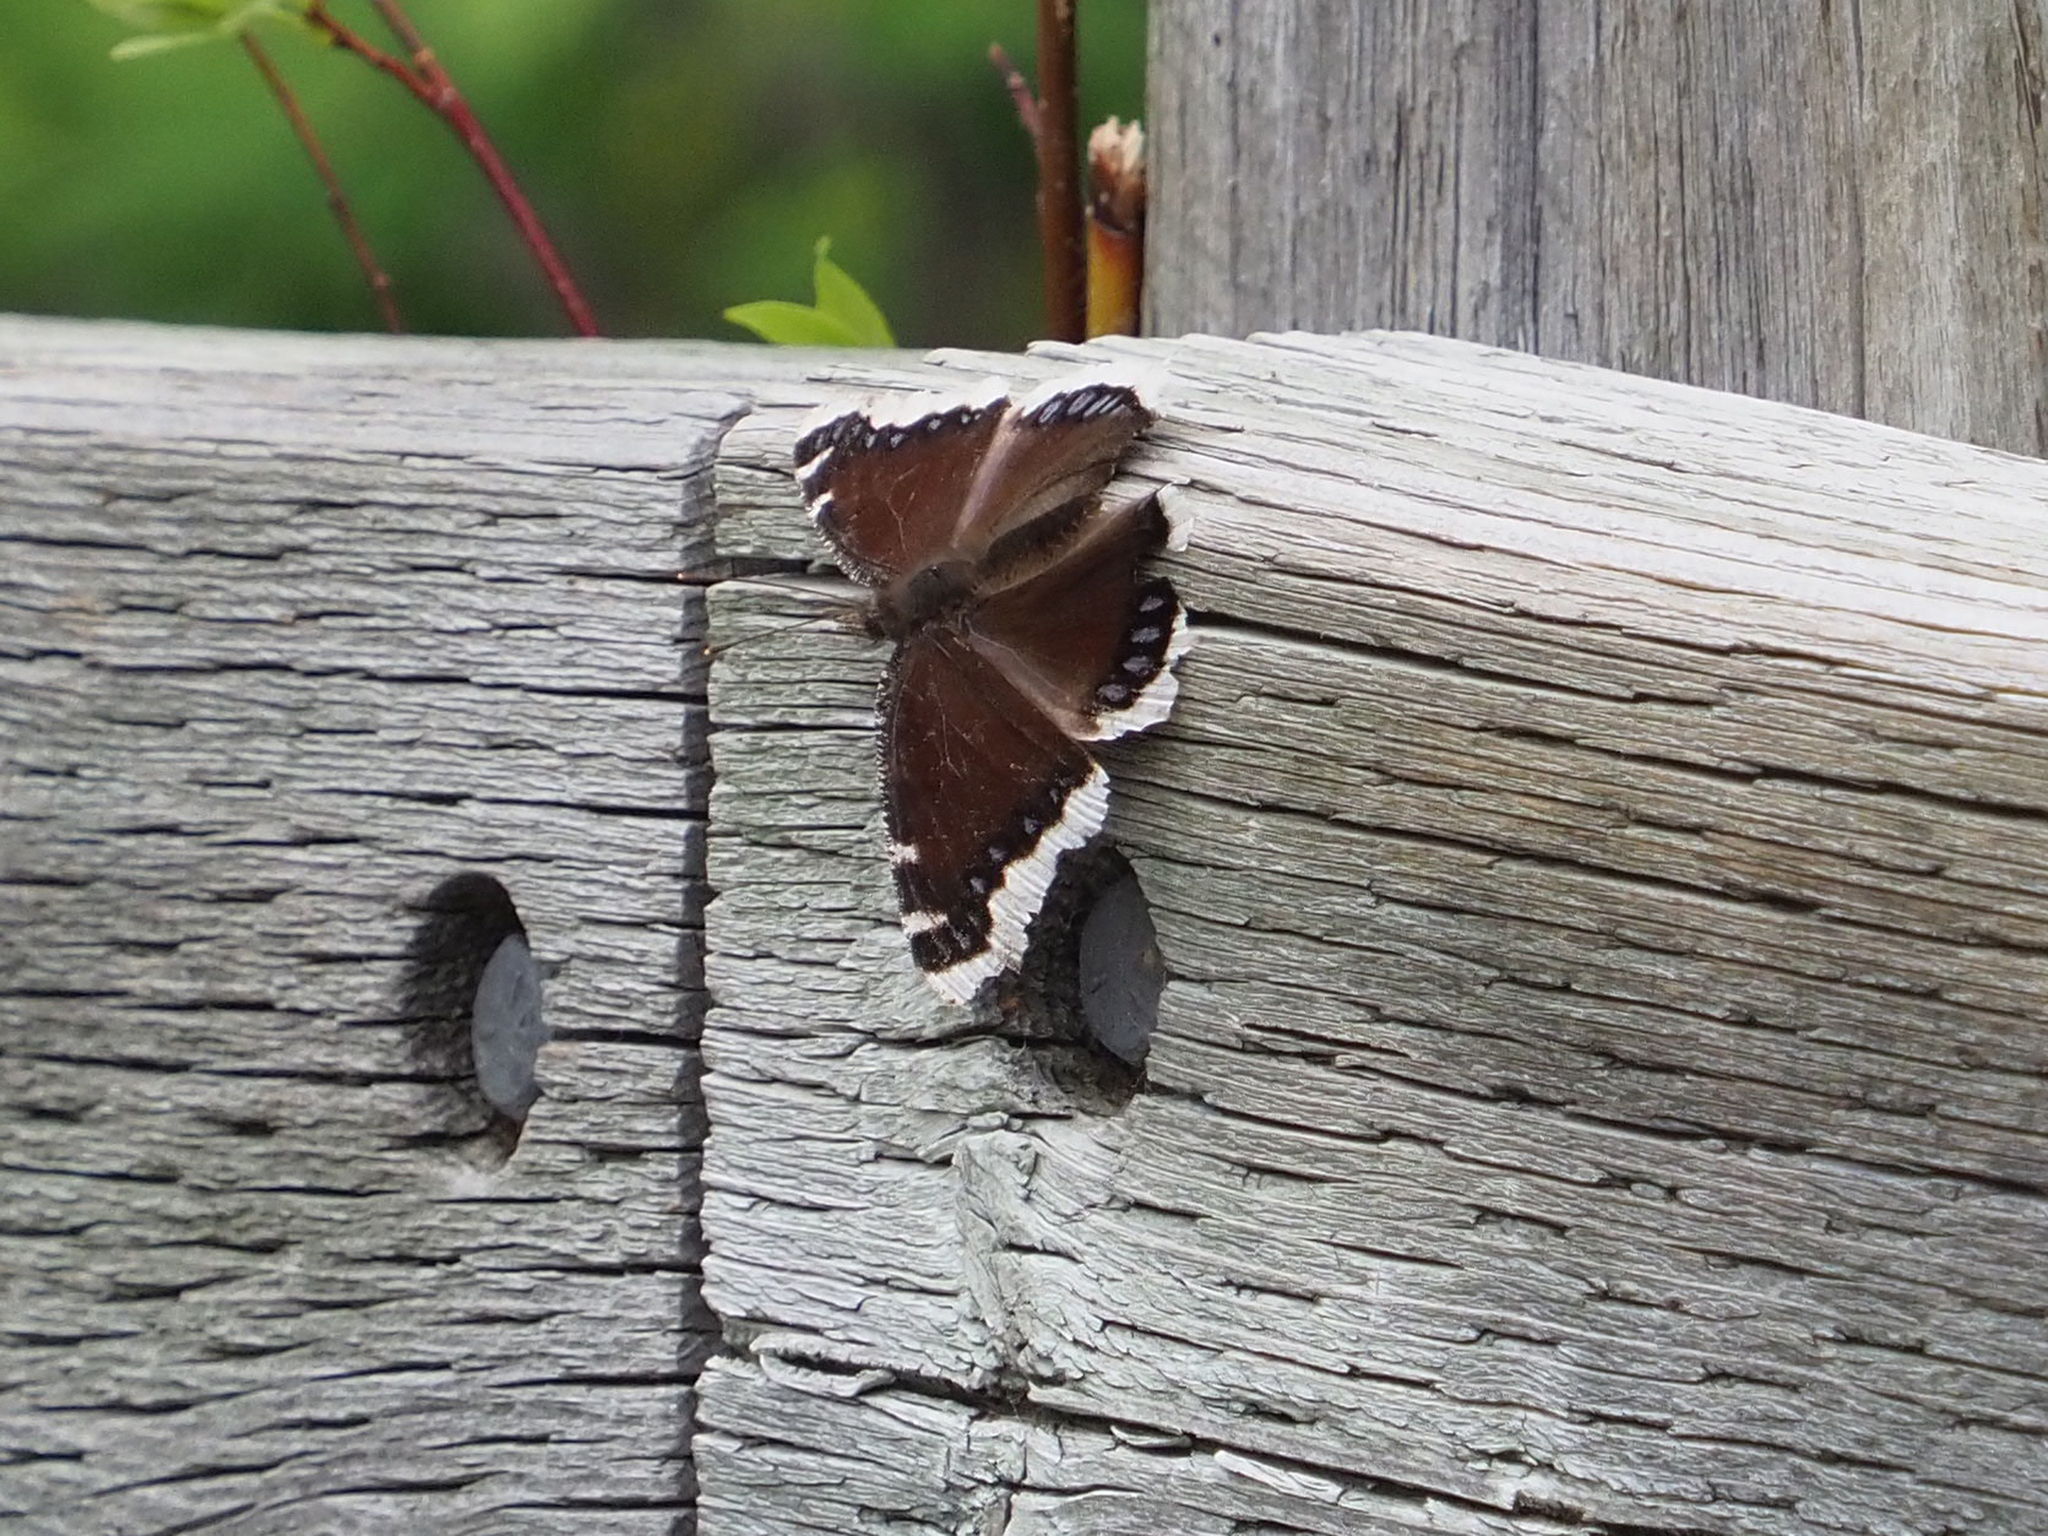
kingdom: Animalia
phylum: Arthropoda
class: Insecta
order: Lepidoptera
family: Nymphalidae
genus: Nymphalis
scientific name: Nymphalis antiopa
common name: Camberwell beauty
